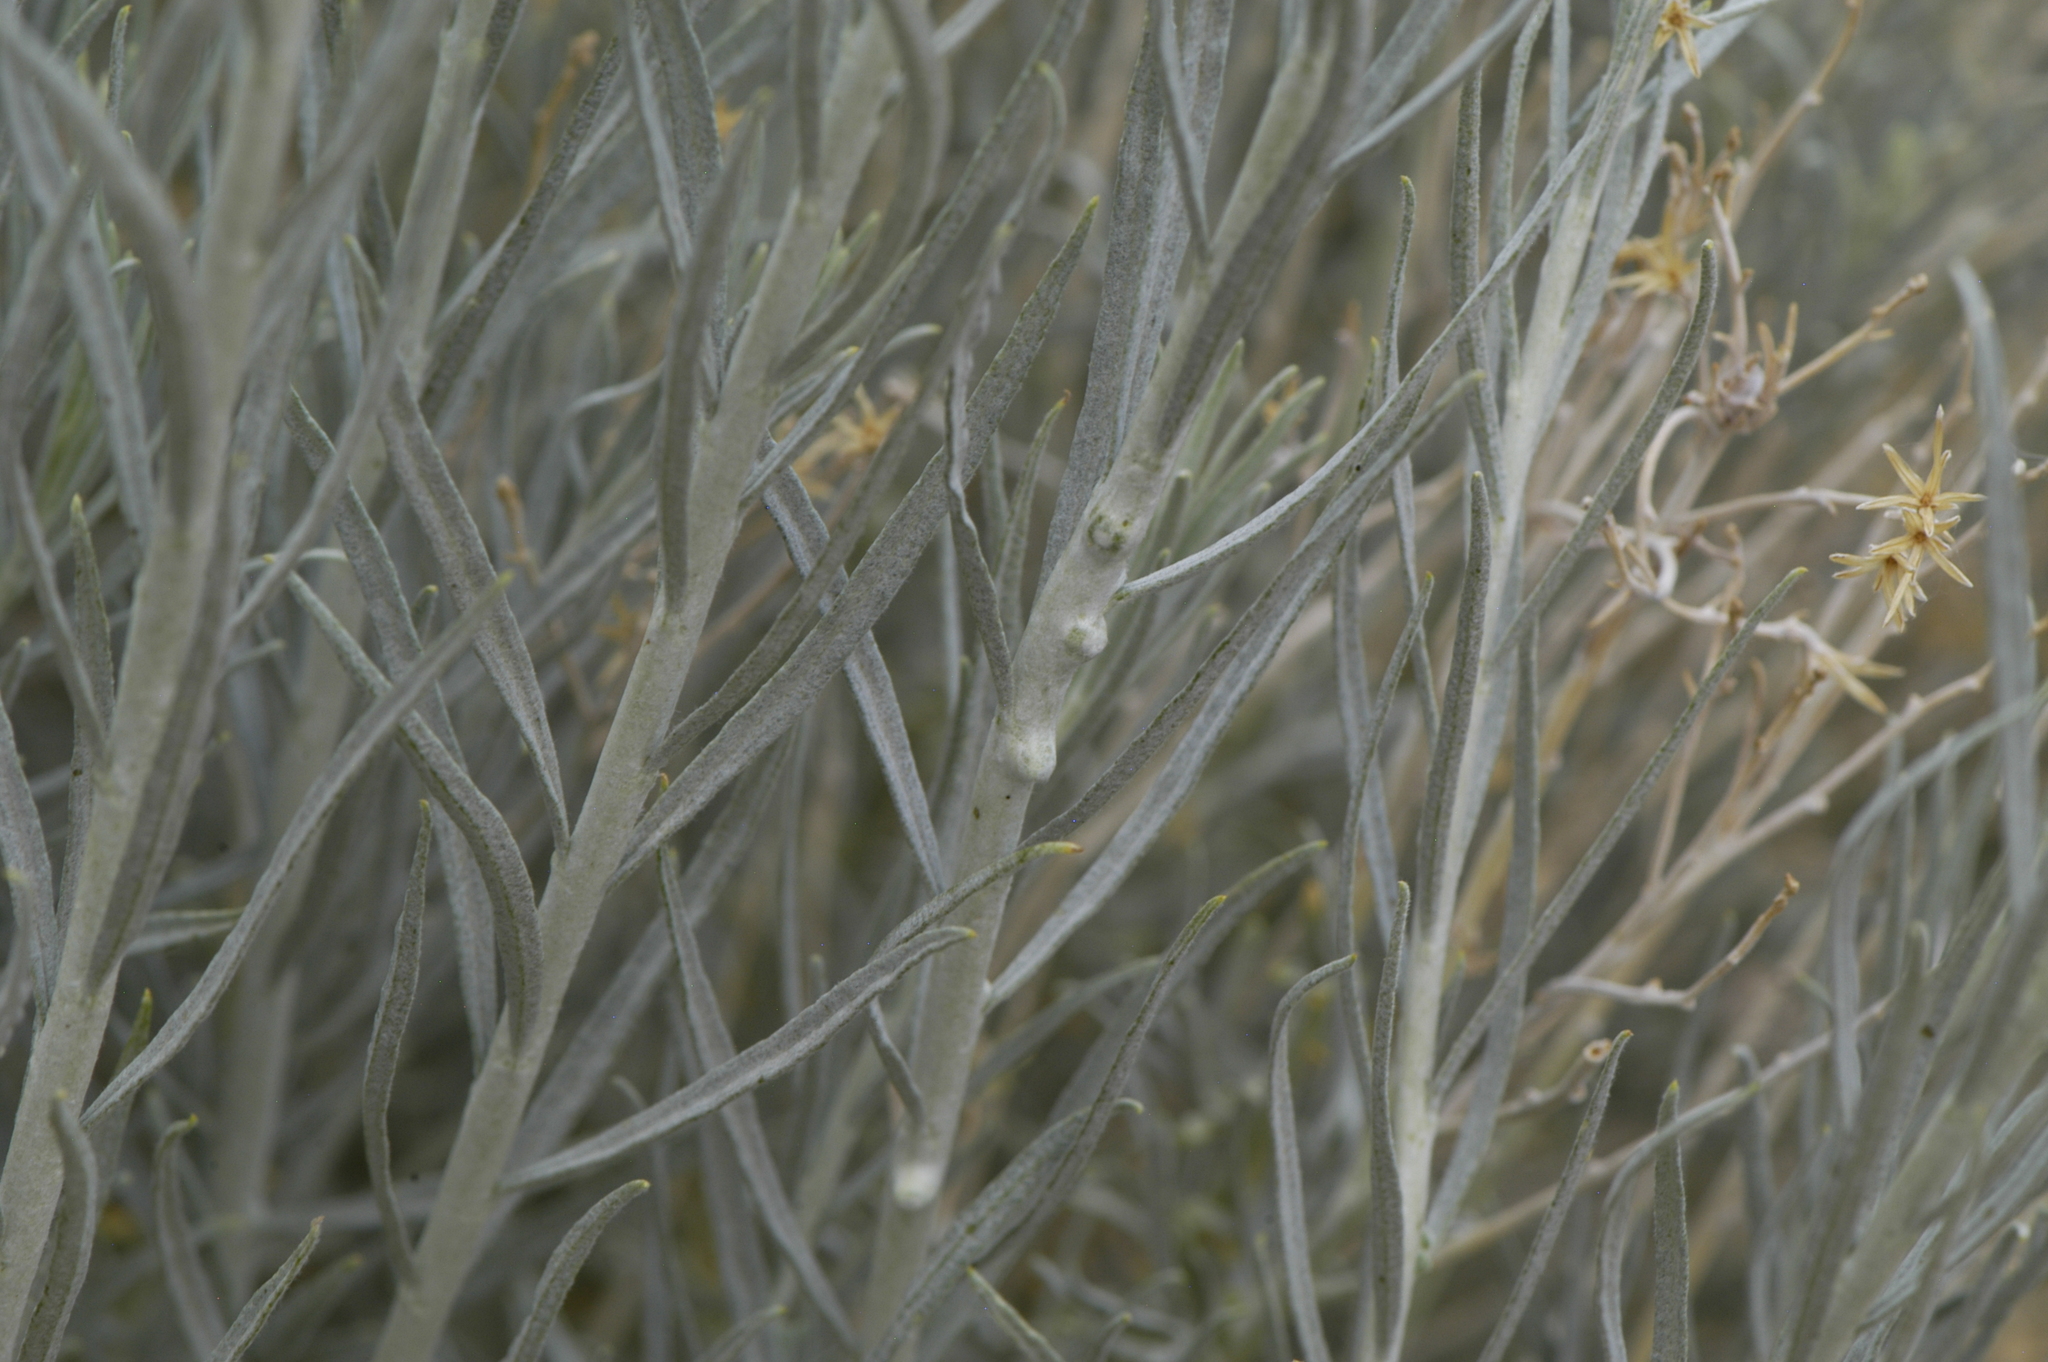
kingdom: Animalia
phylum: Arthropoda
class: Insecta
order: Diptera
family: Cecidomyiidae
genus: Rhopalomyia
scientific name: Rhopalomyia chrysothamni
